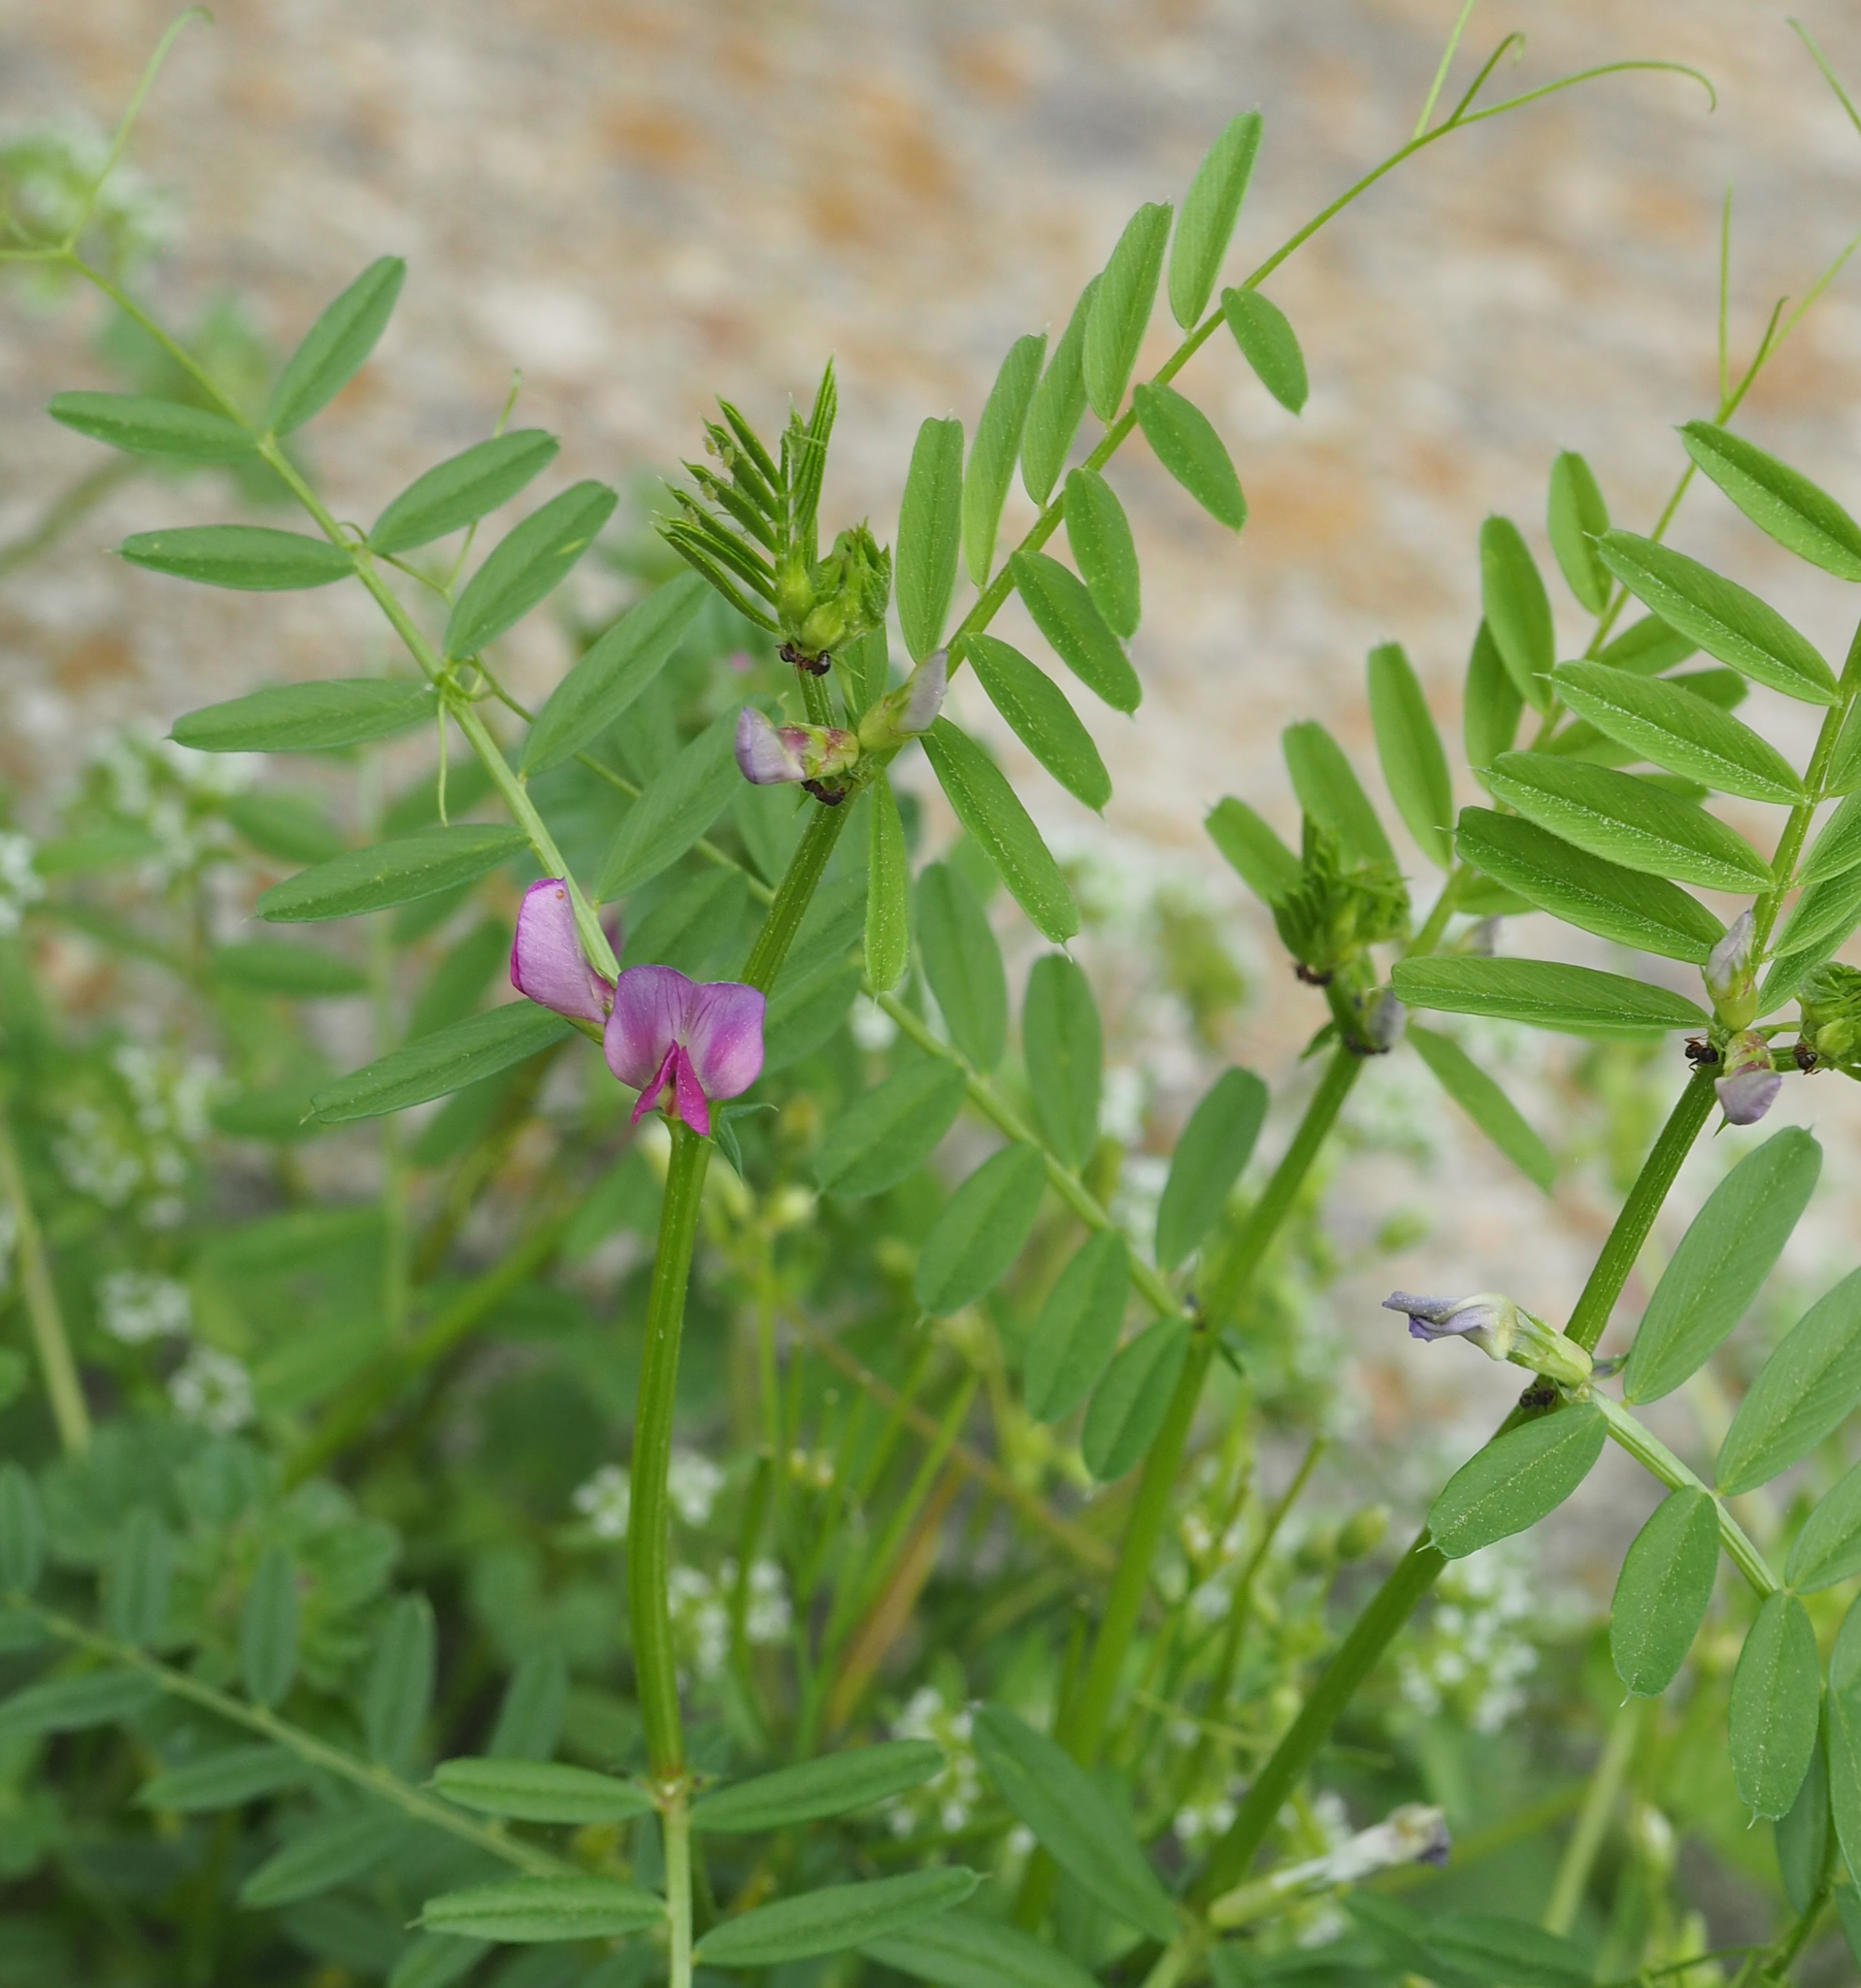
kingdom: Plantae
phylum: Tracheophyta
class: Magnoliopsida
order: Fabales
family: Fabaceae
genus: Vicia
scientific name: Vicia sativa
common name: Garden vetch
